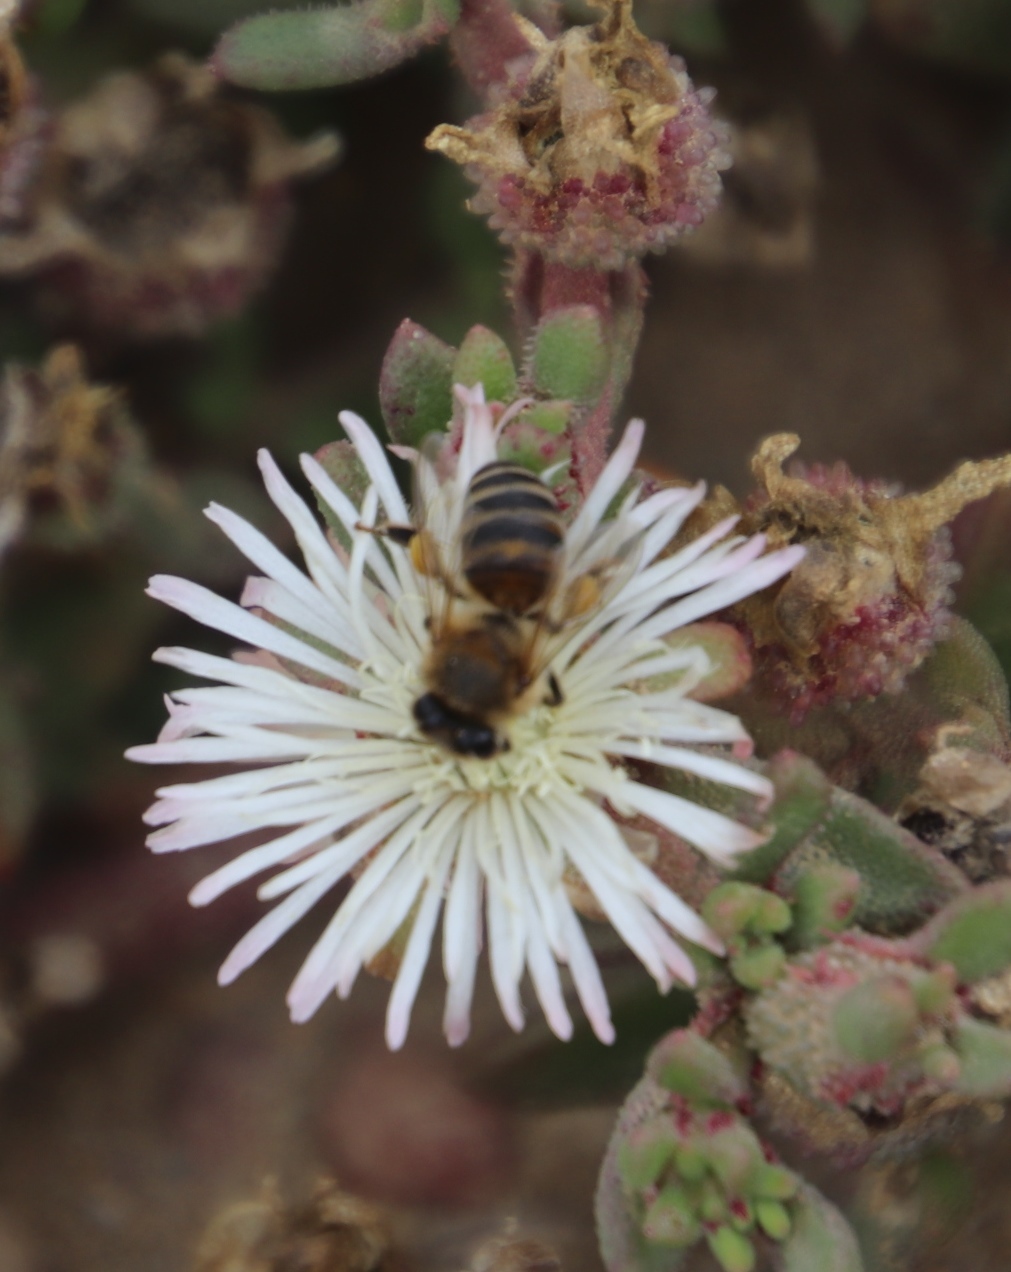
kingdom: Animalia
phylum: Arthropoda
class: Insecta
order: Hymenoptera
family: Apidae
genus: Apis
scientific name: Apis mellifera
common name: Honey bee
